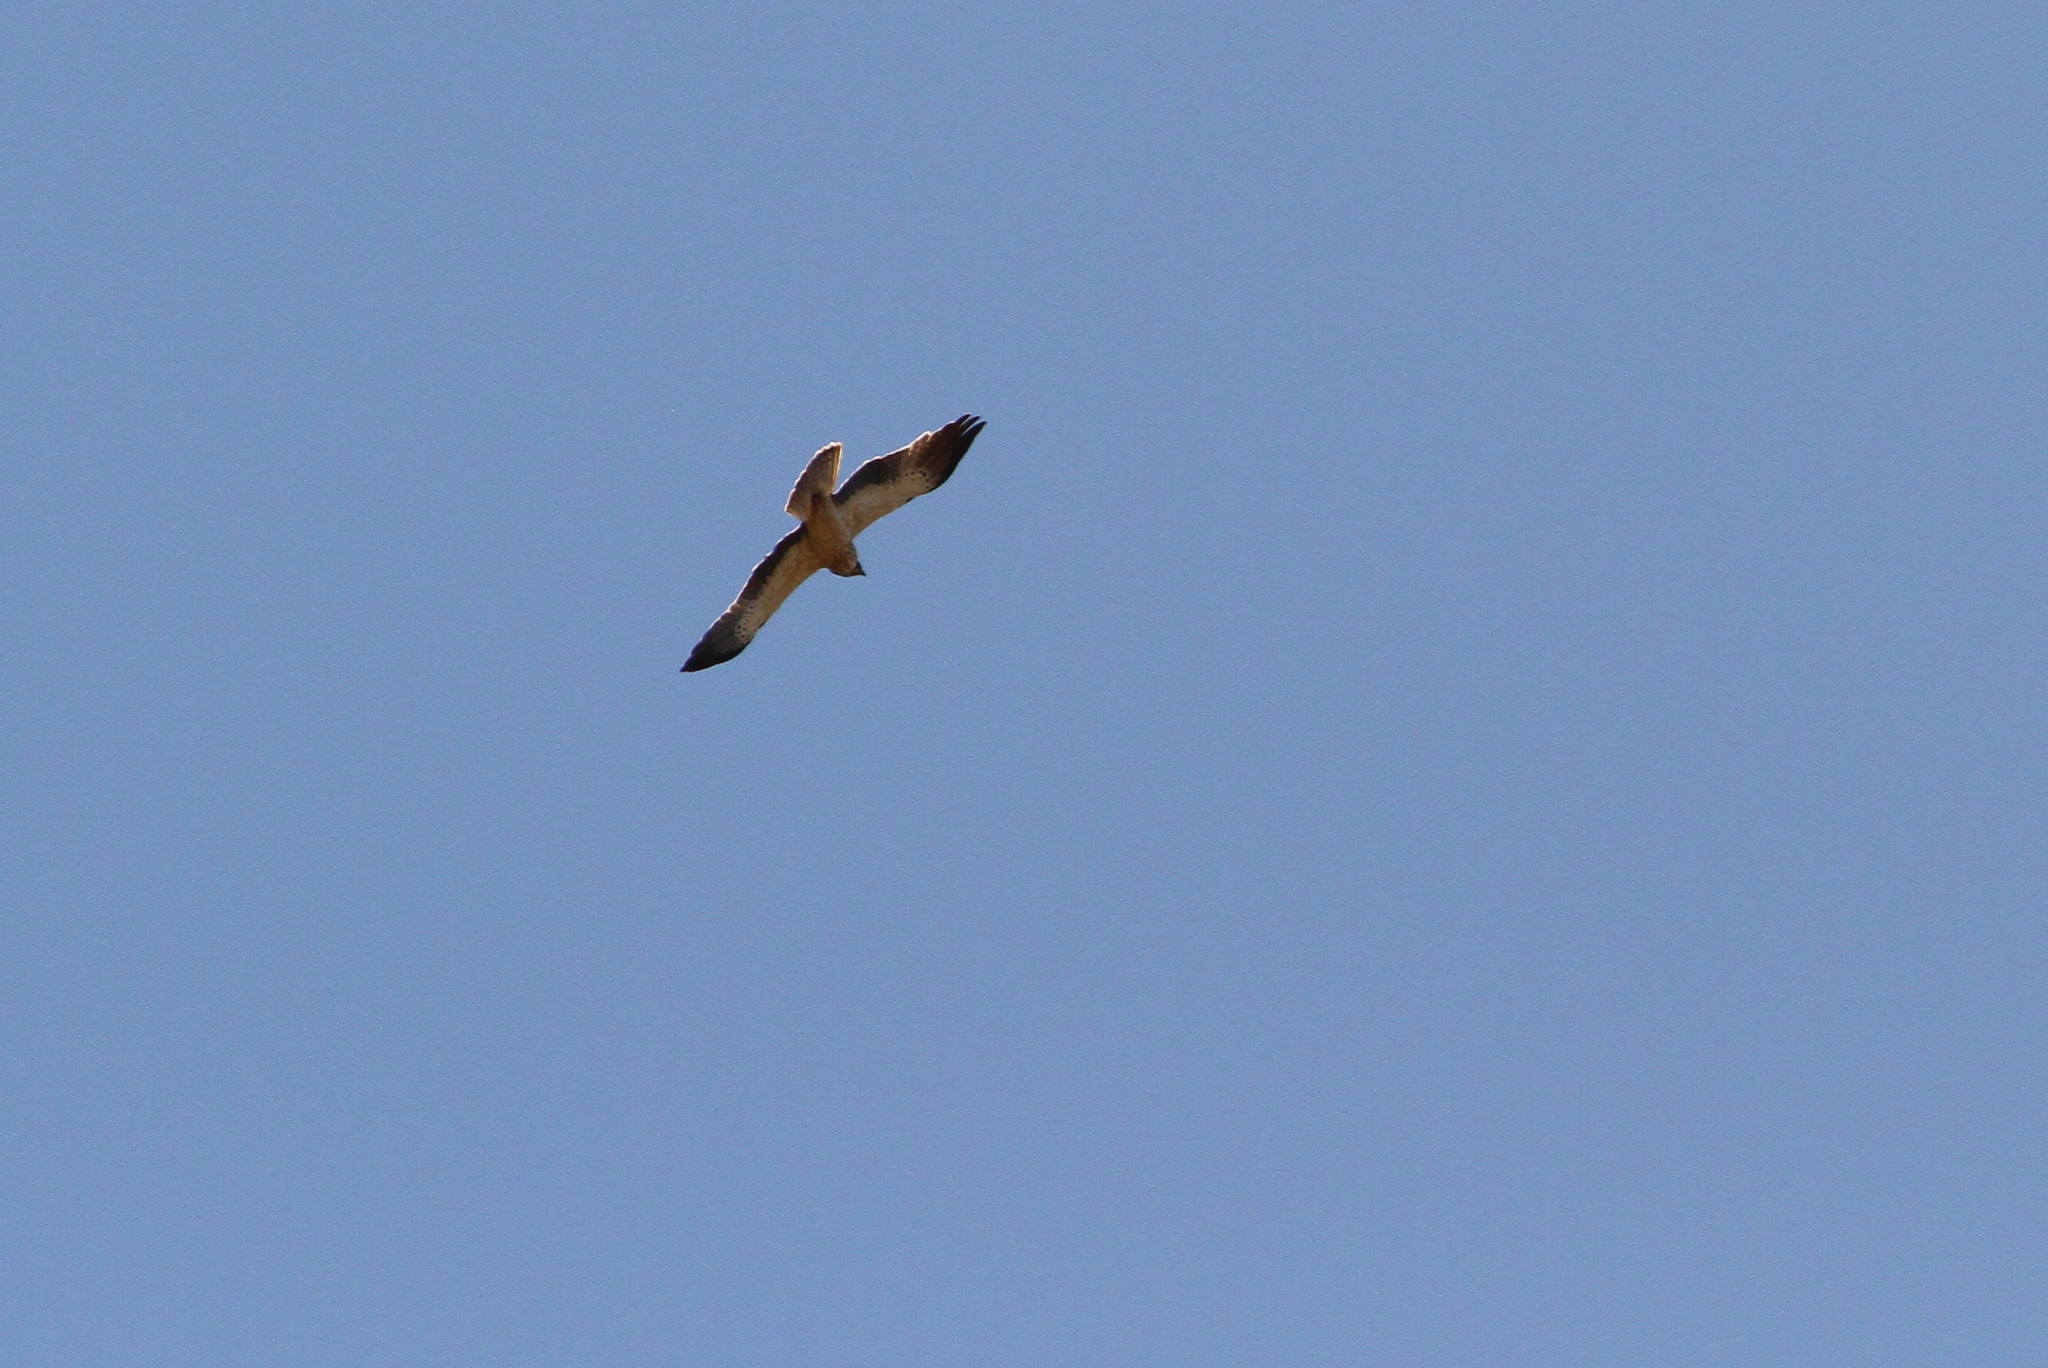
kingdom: Animalia
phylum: Chordata
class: Aves
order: Accipitriformes
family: Accipitridae
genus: Hieraaetus
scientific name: Hieraaetus pennatus
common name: Booted eagle
